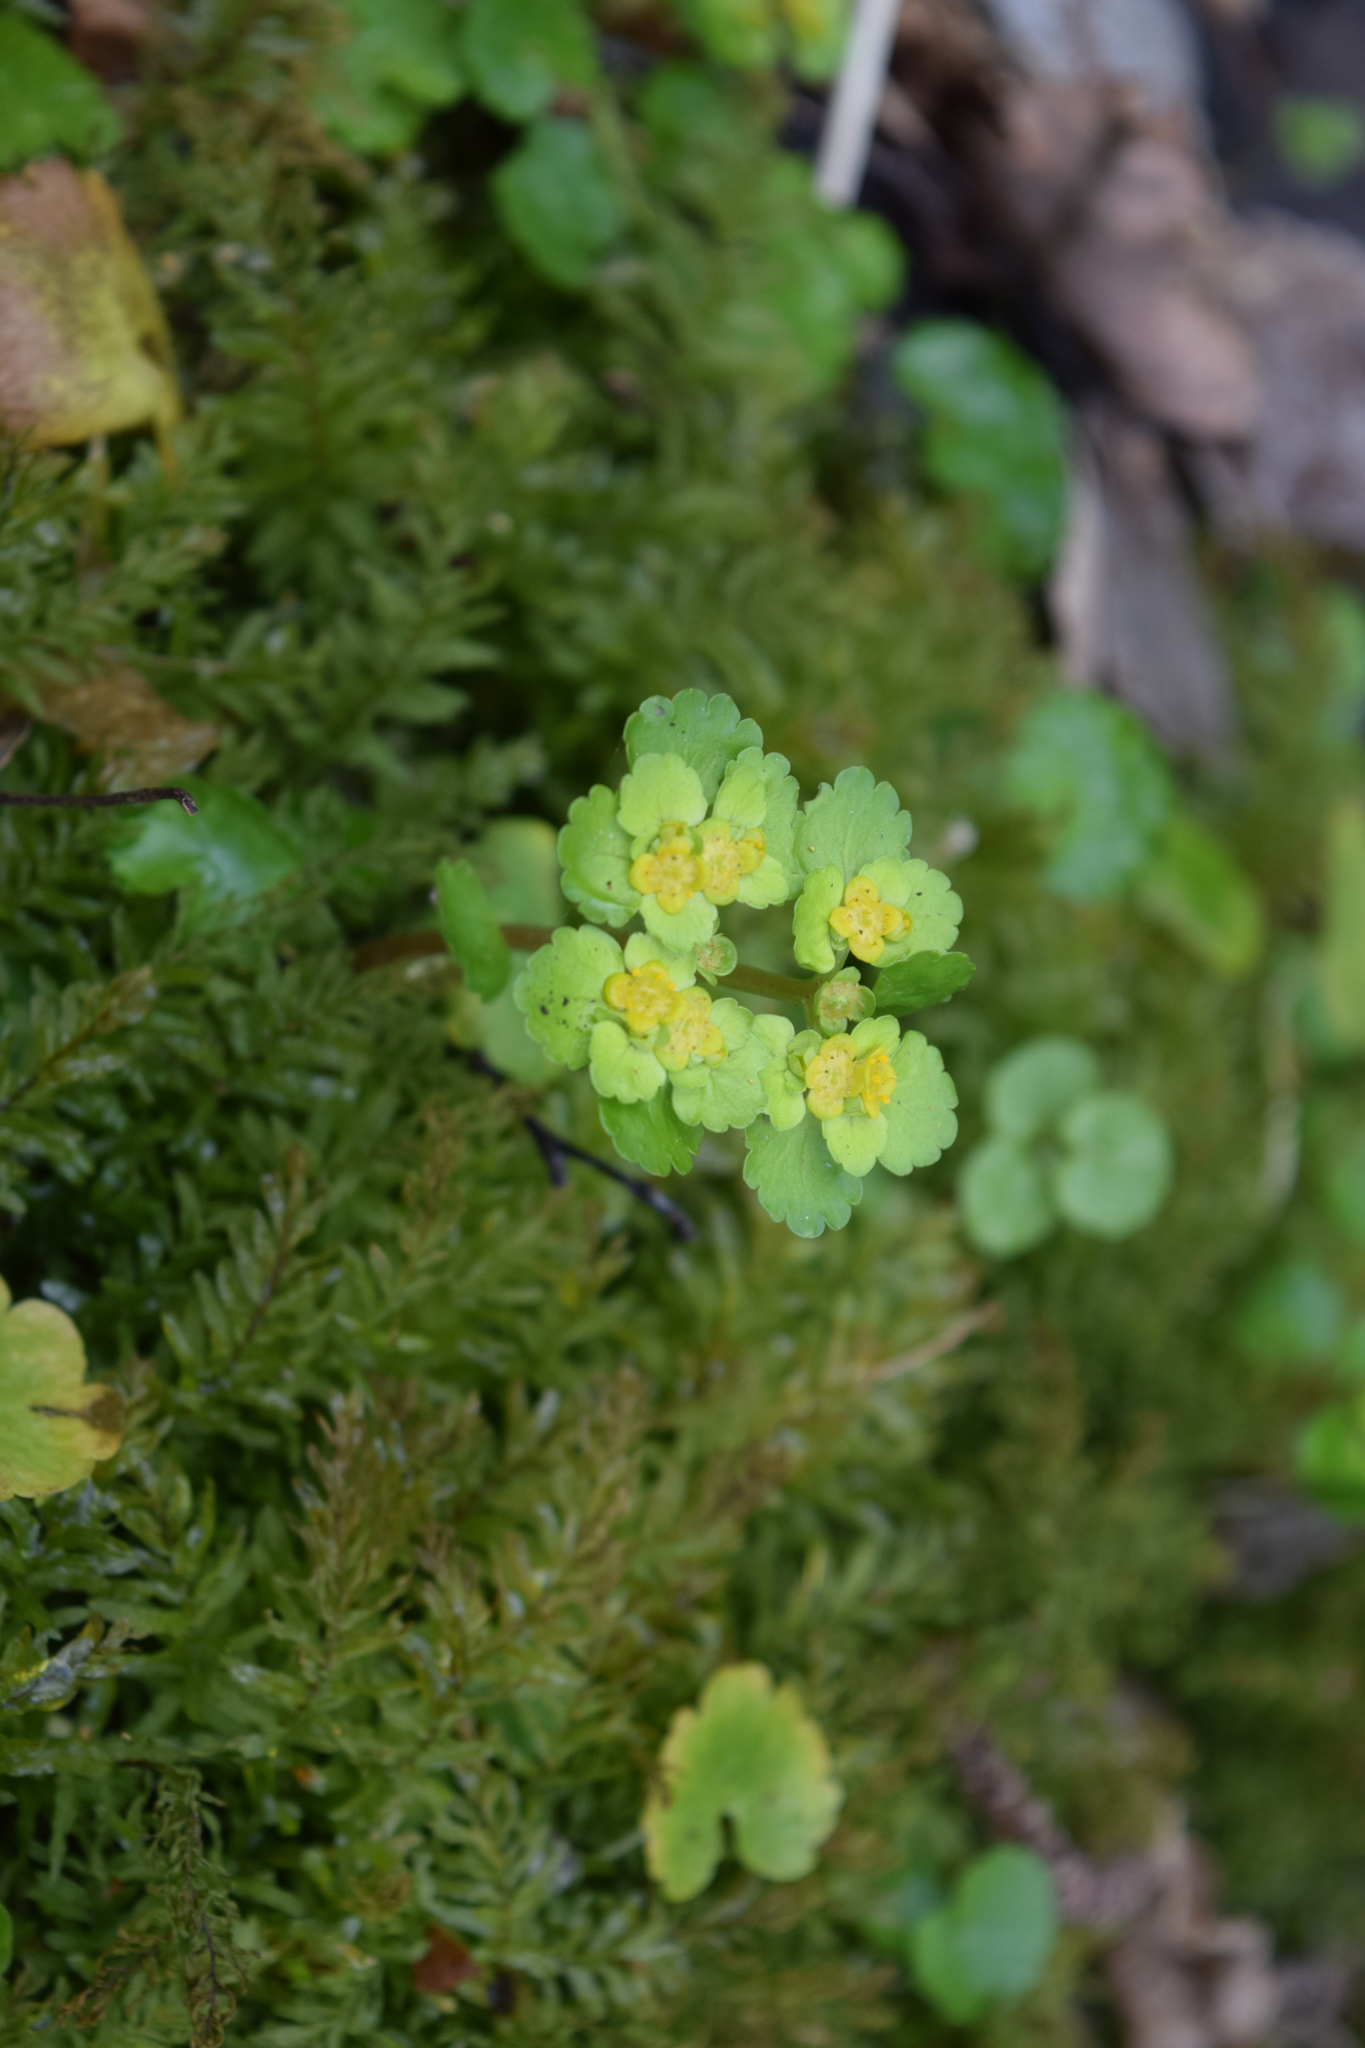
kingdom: Plantae
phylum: Tracheophyta
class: Magnoliopsida
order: Saxifragales
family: Saxifragaceae
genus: Chrysosplenium
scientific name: Chrysosplenium alternifolium
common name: Alternate-leaved golden-saxifrage
